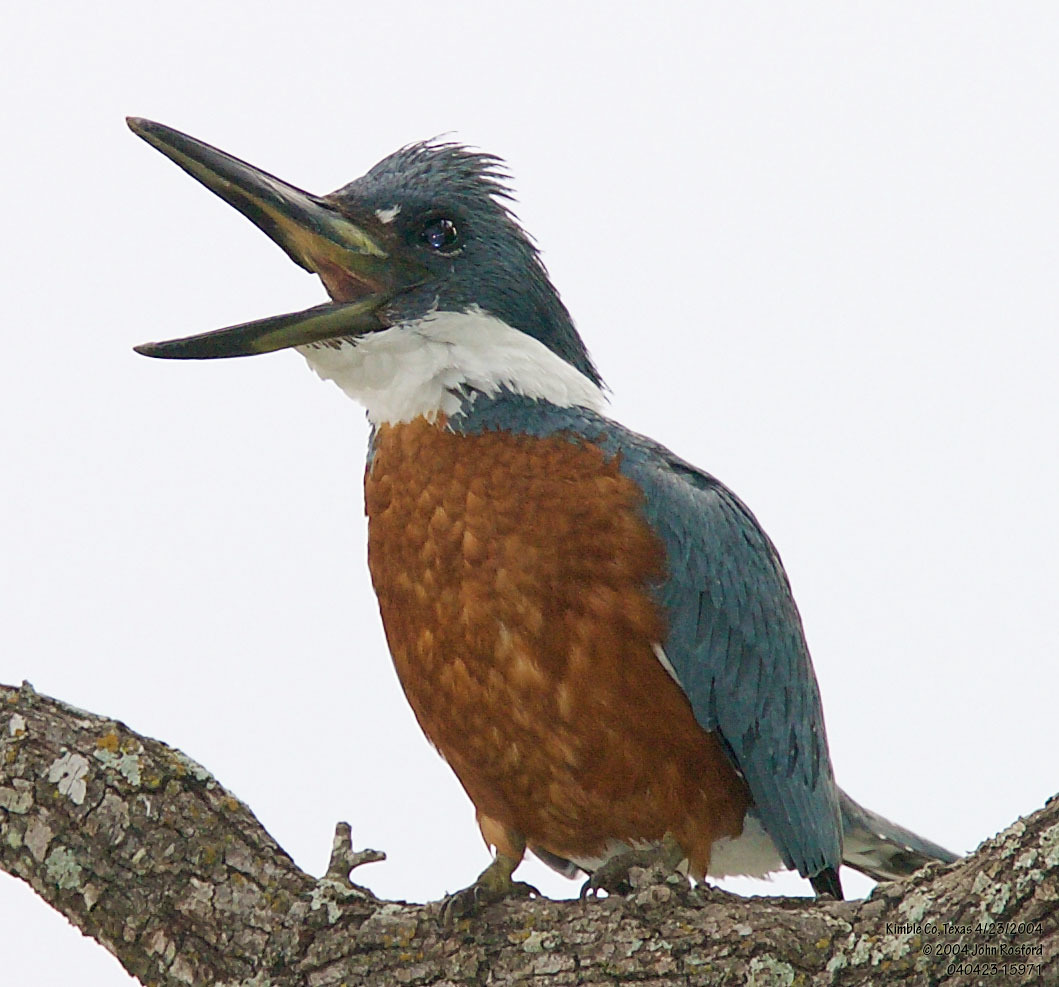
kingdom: Animalia
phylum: Chordata
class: Aves
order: Coraciiformes
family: Alcedinidae
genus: Megaceryle
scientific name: Megaceryle torquata
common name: Ringed kingfisher
